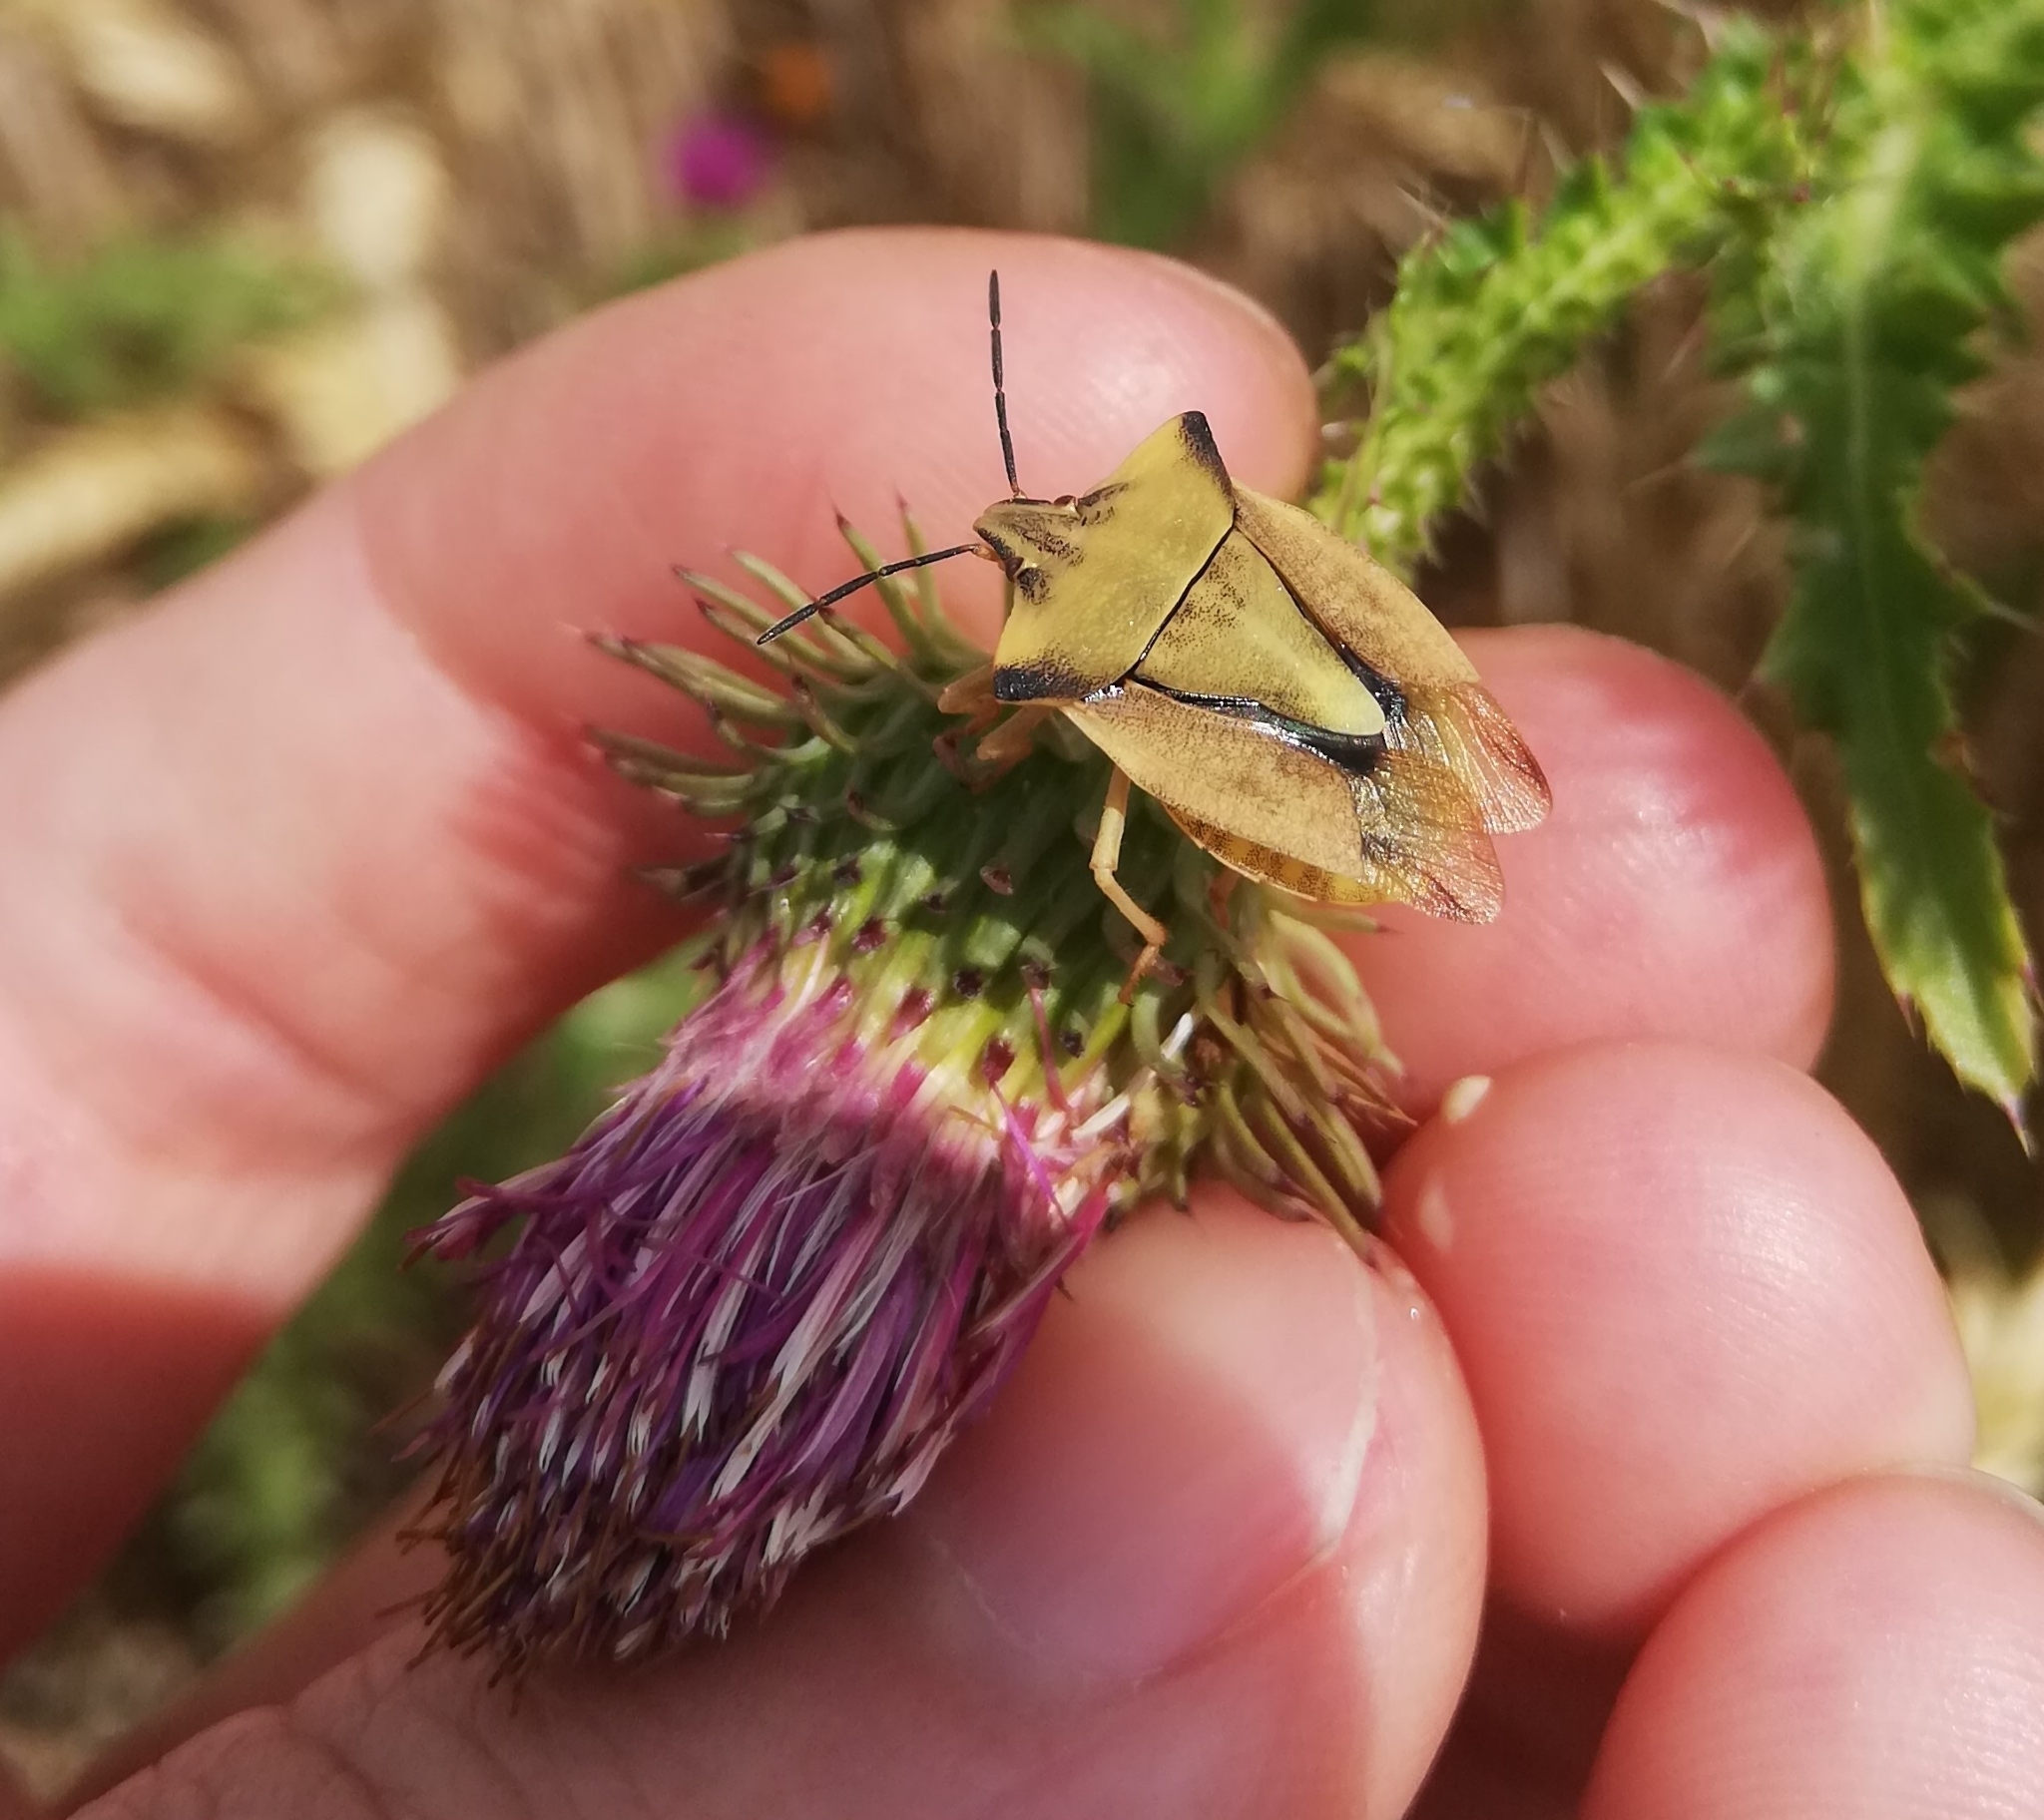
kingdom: Animalia
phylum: Arthropoda
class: Insecta
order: Hemiptera
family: Pentatomidae
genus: Carpocoris
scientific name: Carpocoris fuscispinus
